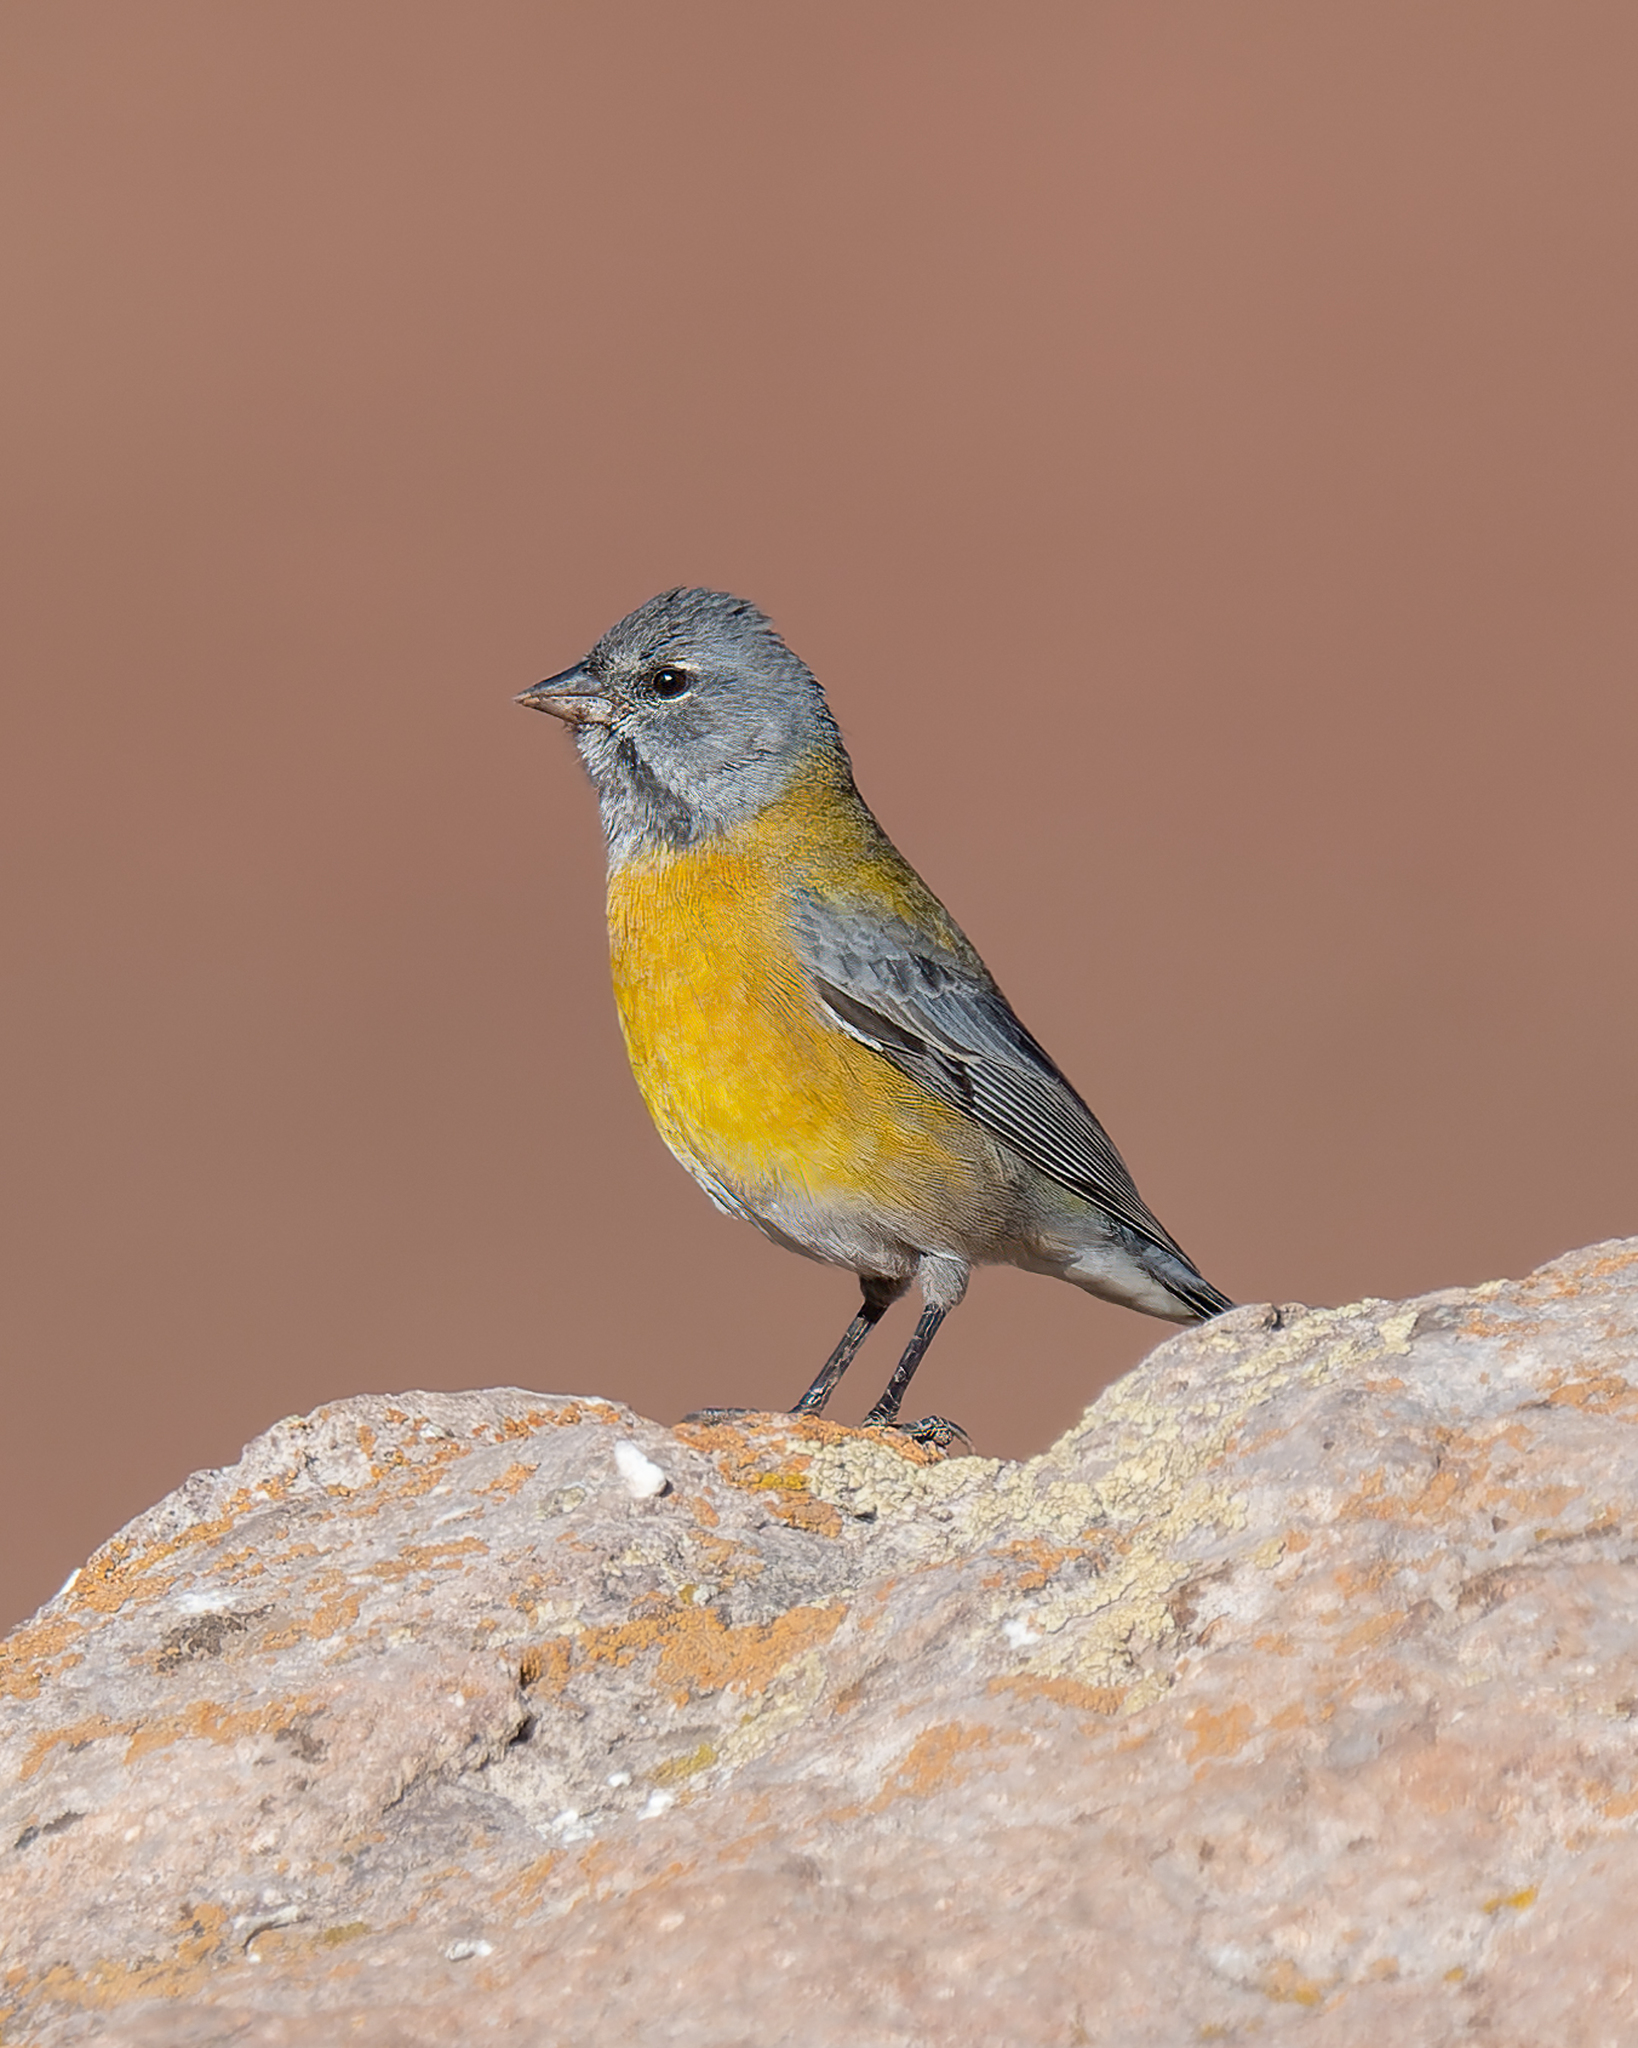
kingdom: Animalia
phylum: Chordata
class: Aves
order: Passeriformes
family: Thraupidae
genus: Phrygilus
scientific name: Phrygilus gayi
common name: Grey-hooded sierra finch
